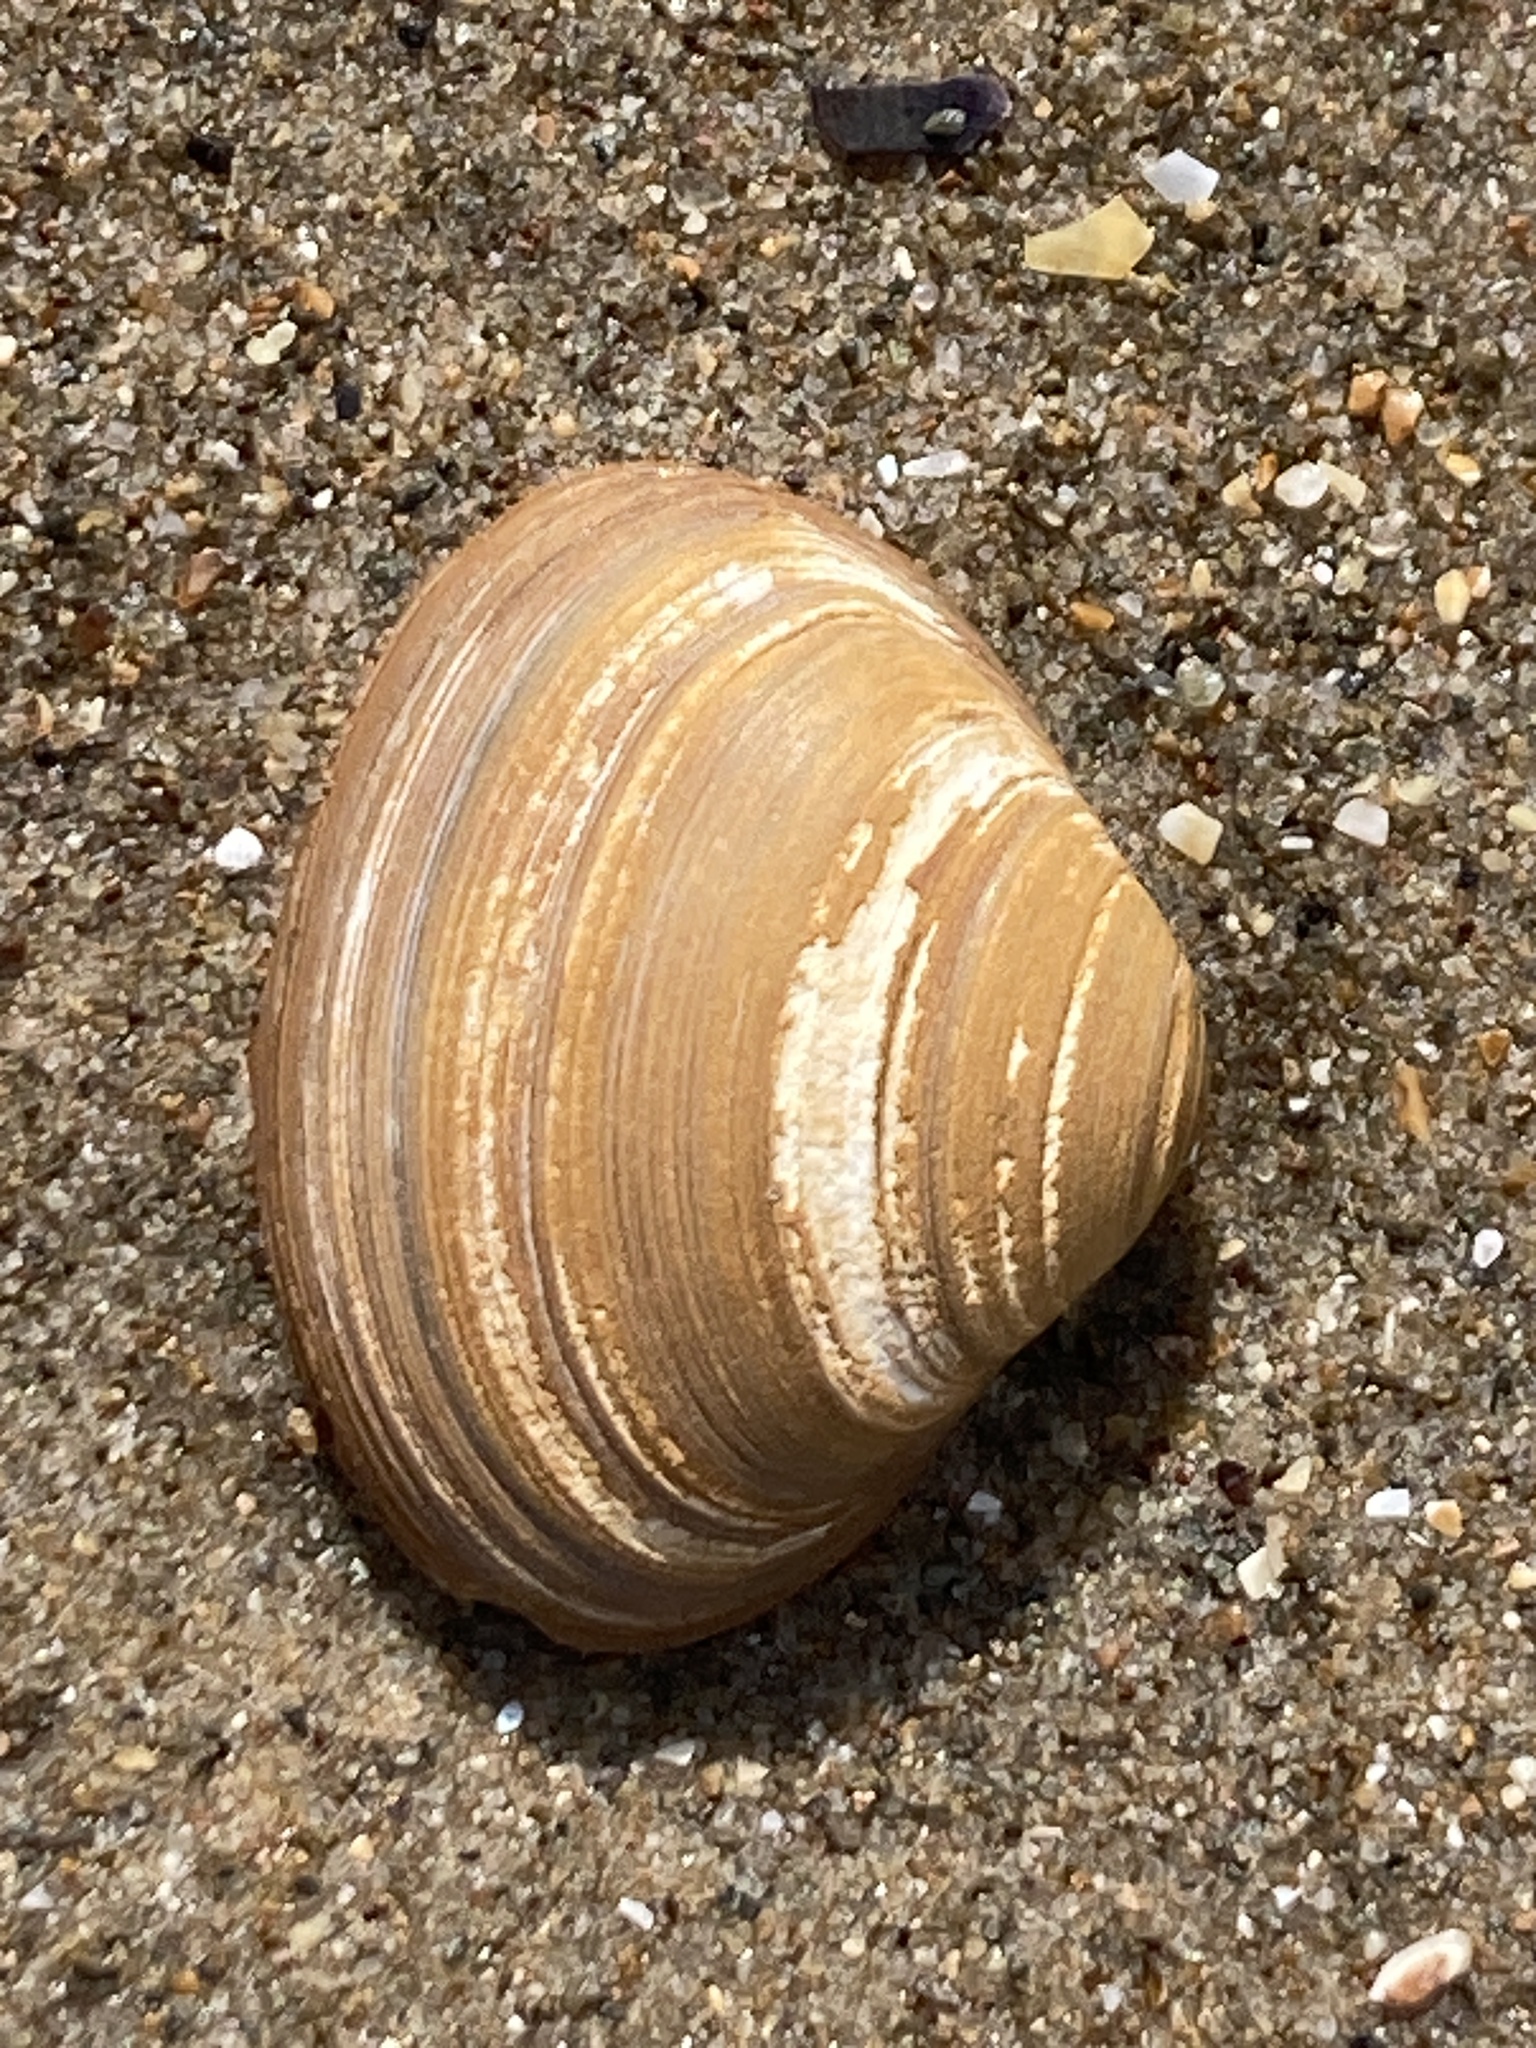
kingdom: Animalia
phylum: Mollusca
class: Bivalvia
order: Venerida
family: Mactridae
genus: Spisula
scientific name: Spisula solida
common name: Thick trough shell
